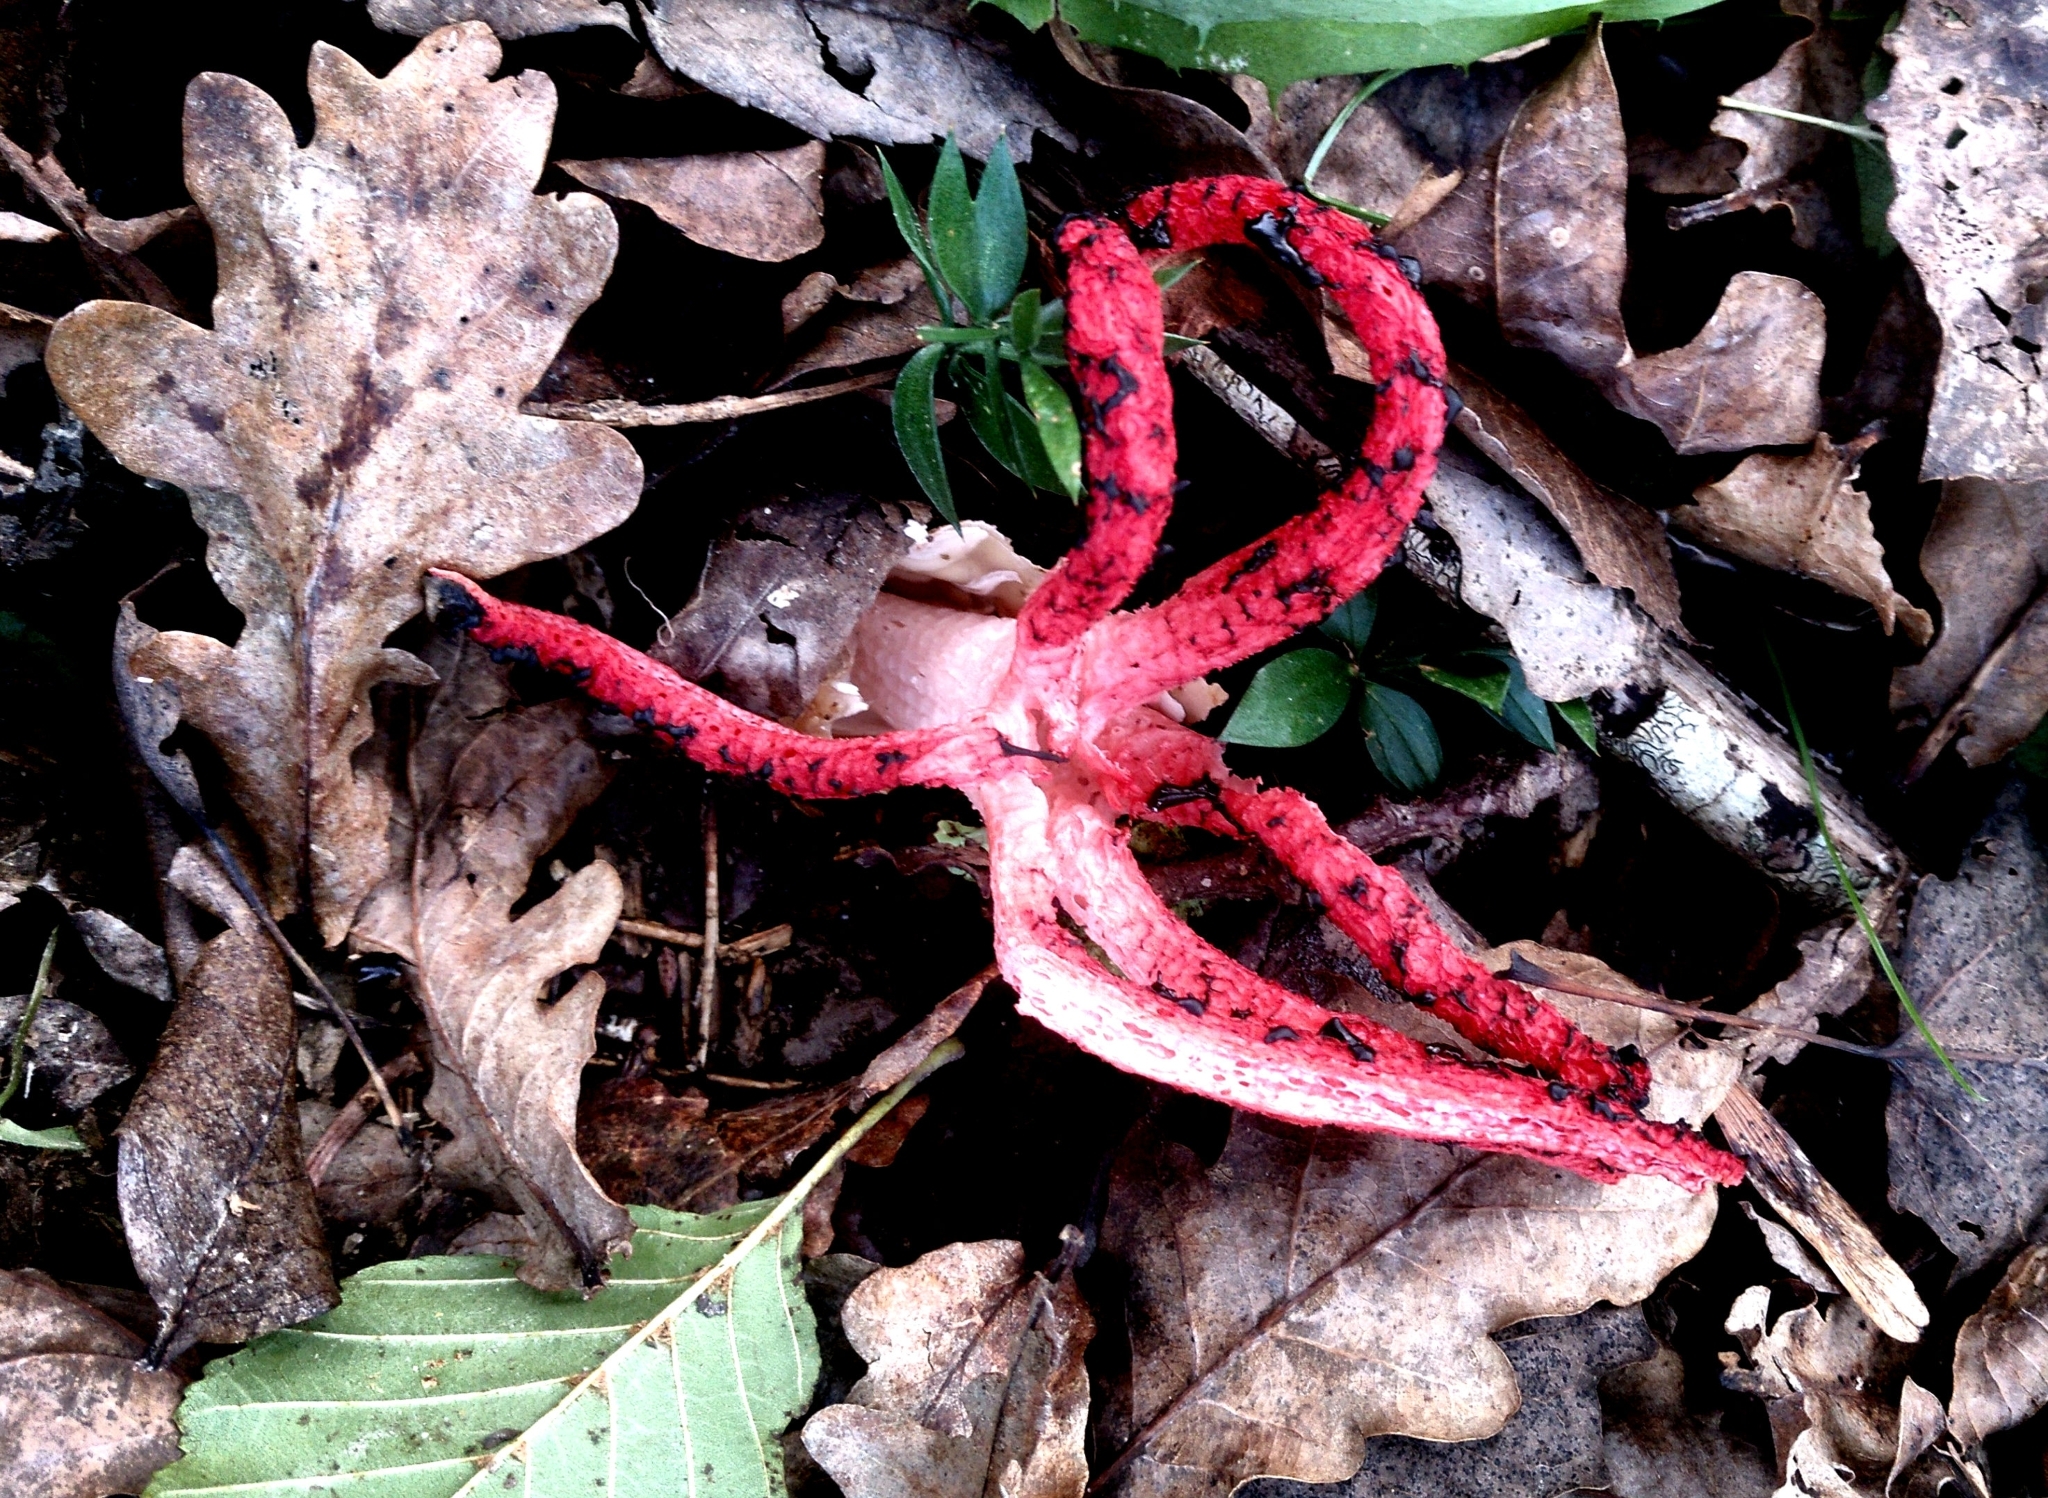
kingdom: Fungi
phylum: Basidiomycota
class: Agaricomycetes
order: Phallales
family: Phallaceae
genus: Clathrus
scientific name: Clathrus archeri
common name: Devil's fingers
